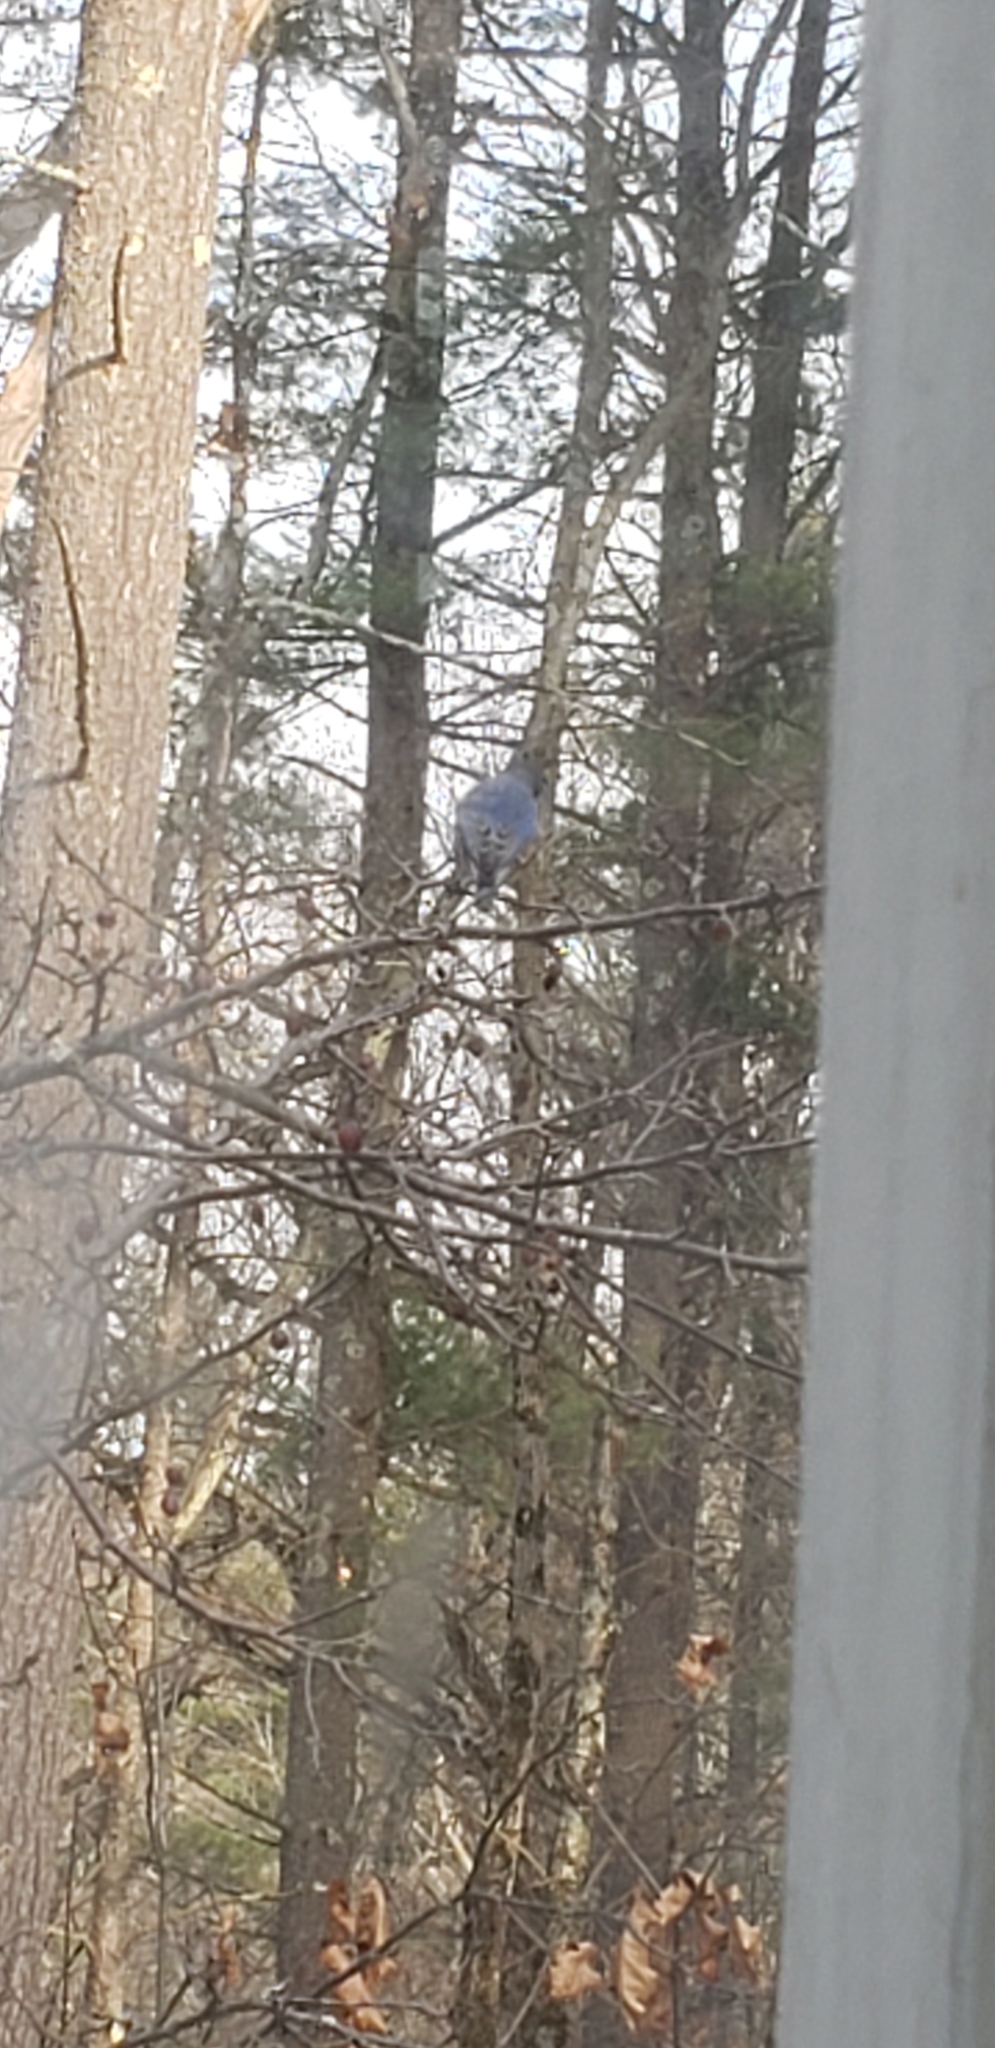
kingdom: Animalia
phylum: Chordata
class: Aves
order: Passeriformes
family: Turdidae
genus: Sialia
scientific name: Sialia sialis
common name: Eastern bluebird
